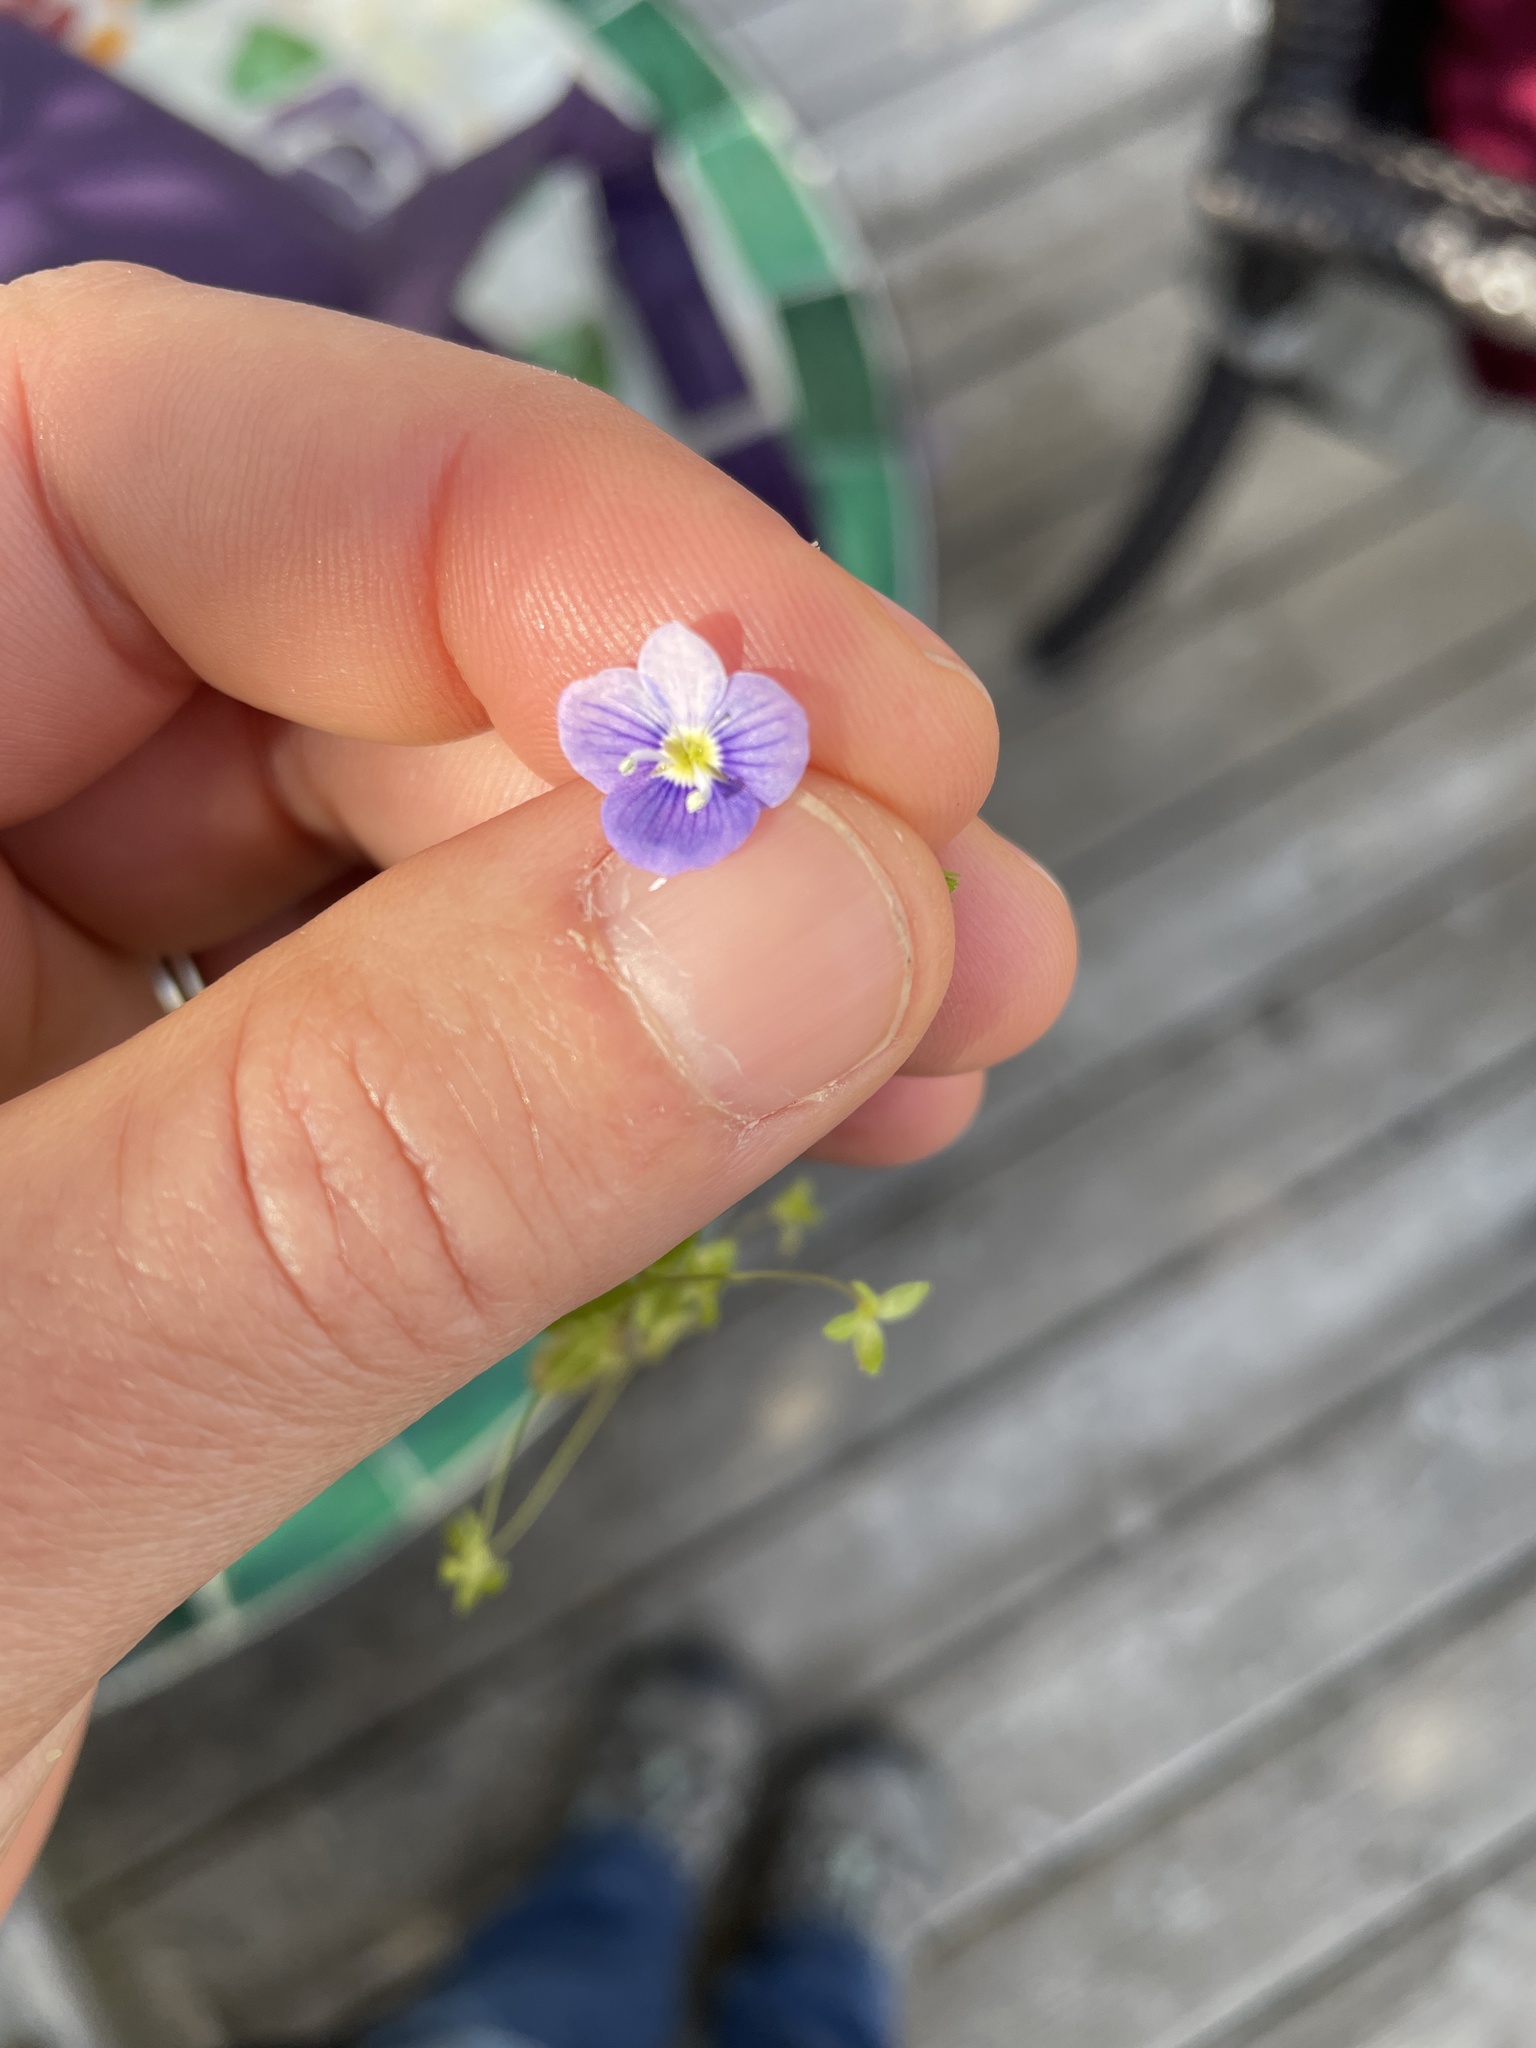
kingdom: Plantae
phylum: Tracheophyta
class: Magnoliopsida
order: Lamiales
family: Plantaginaceae
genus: Veronica
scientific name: Veronica filiformis
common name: Slender speedwell
